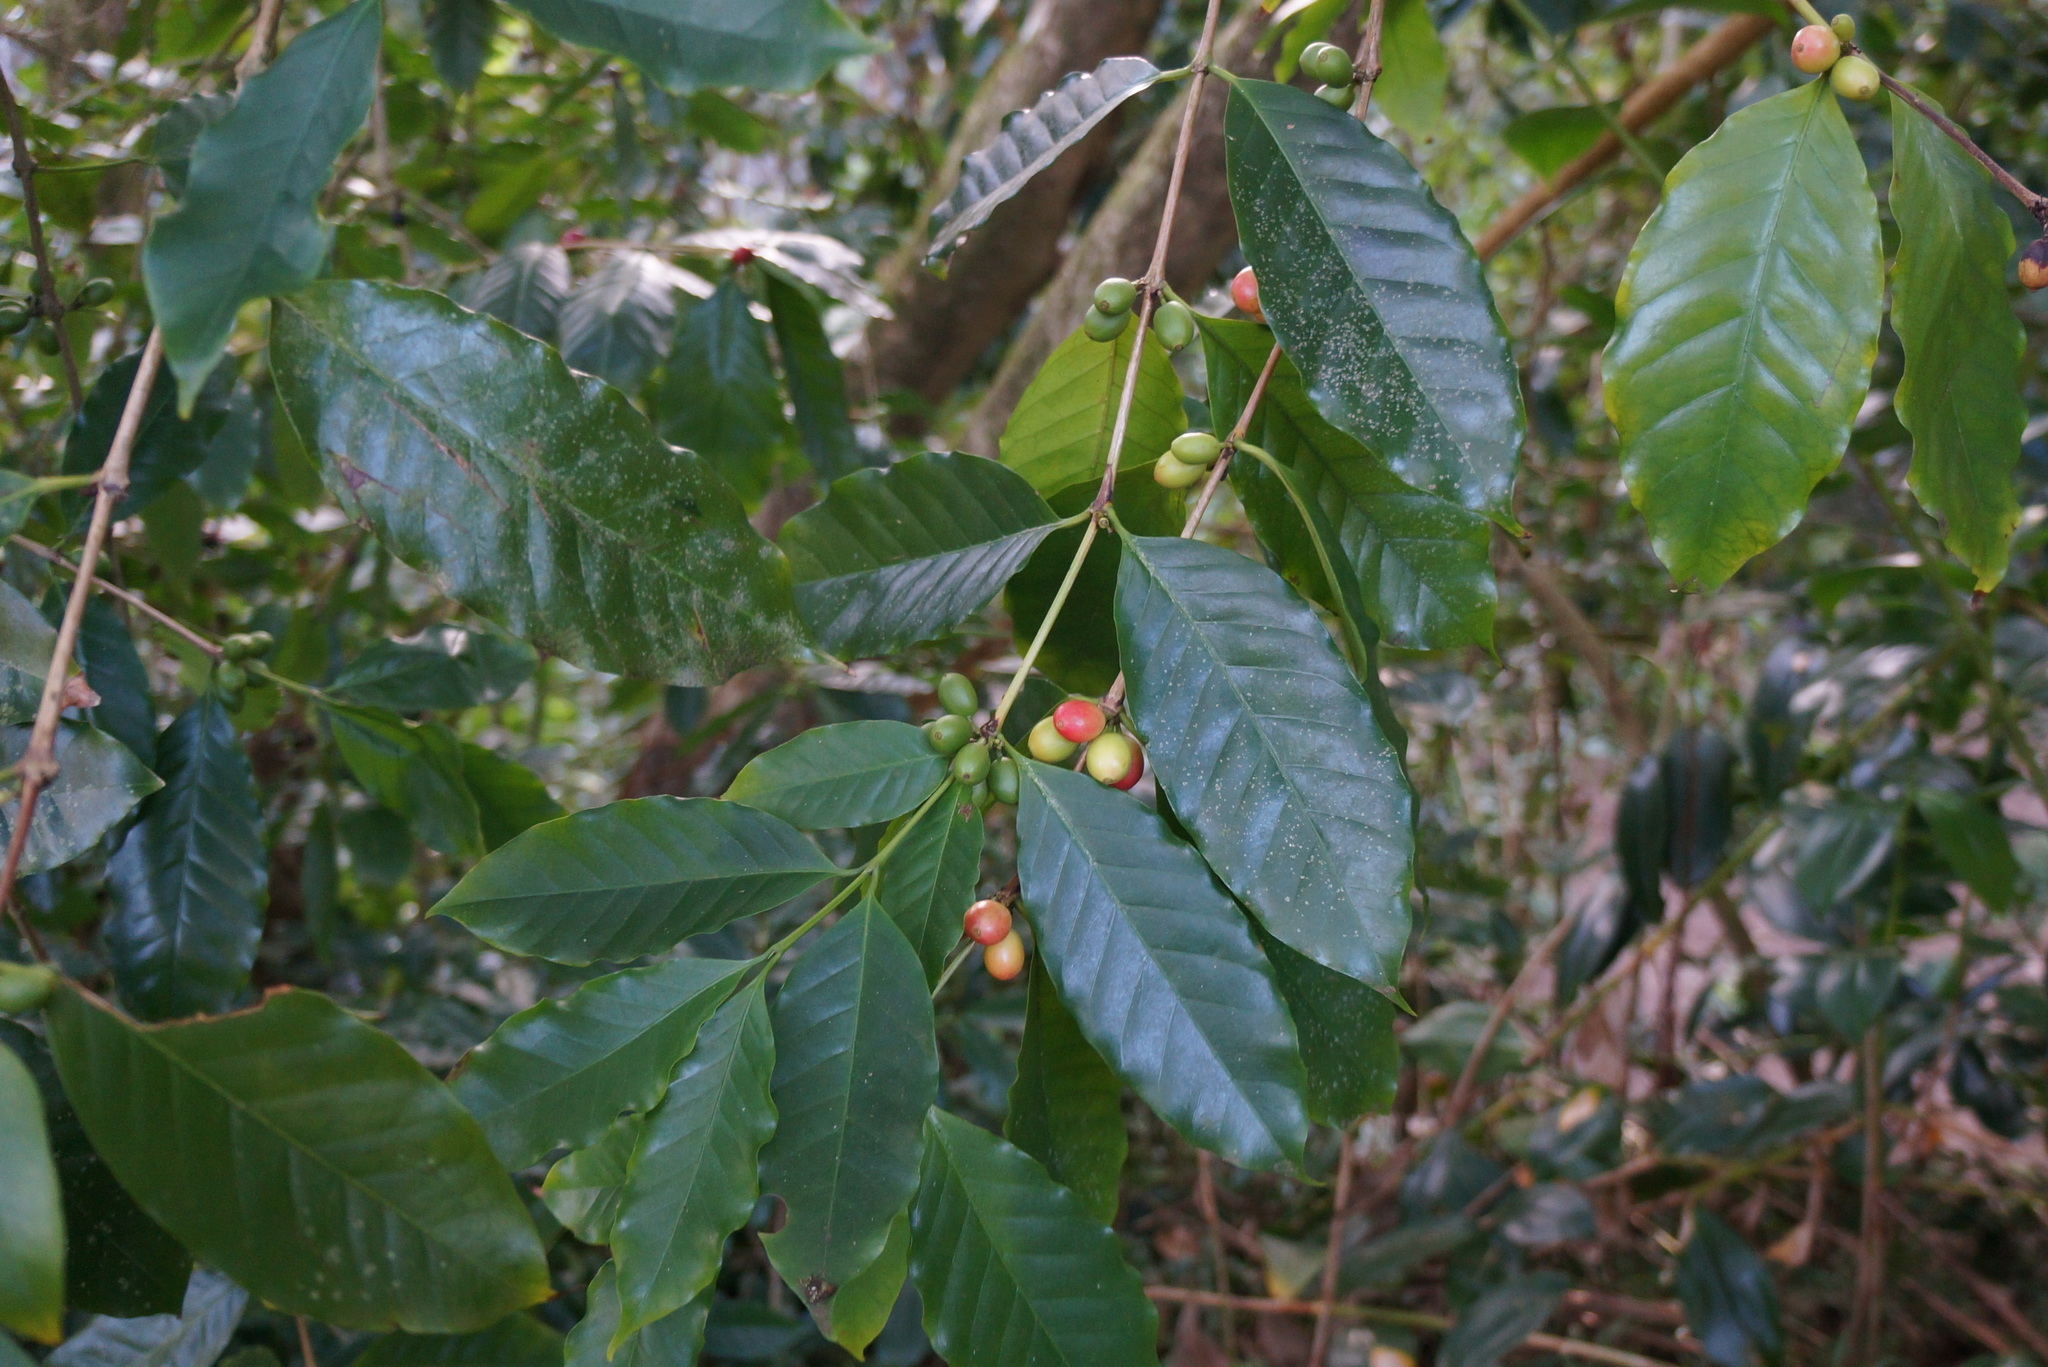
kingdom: Plantae
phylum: Tracheophyta
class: Magnoliopsida
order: Gentianales
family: Rubiaceae
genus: Coffea
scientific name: Coffea arabica
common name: Coffee
